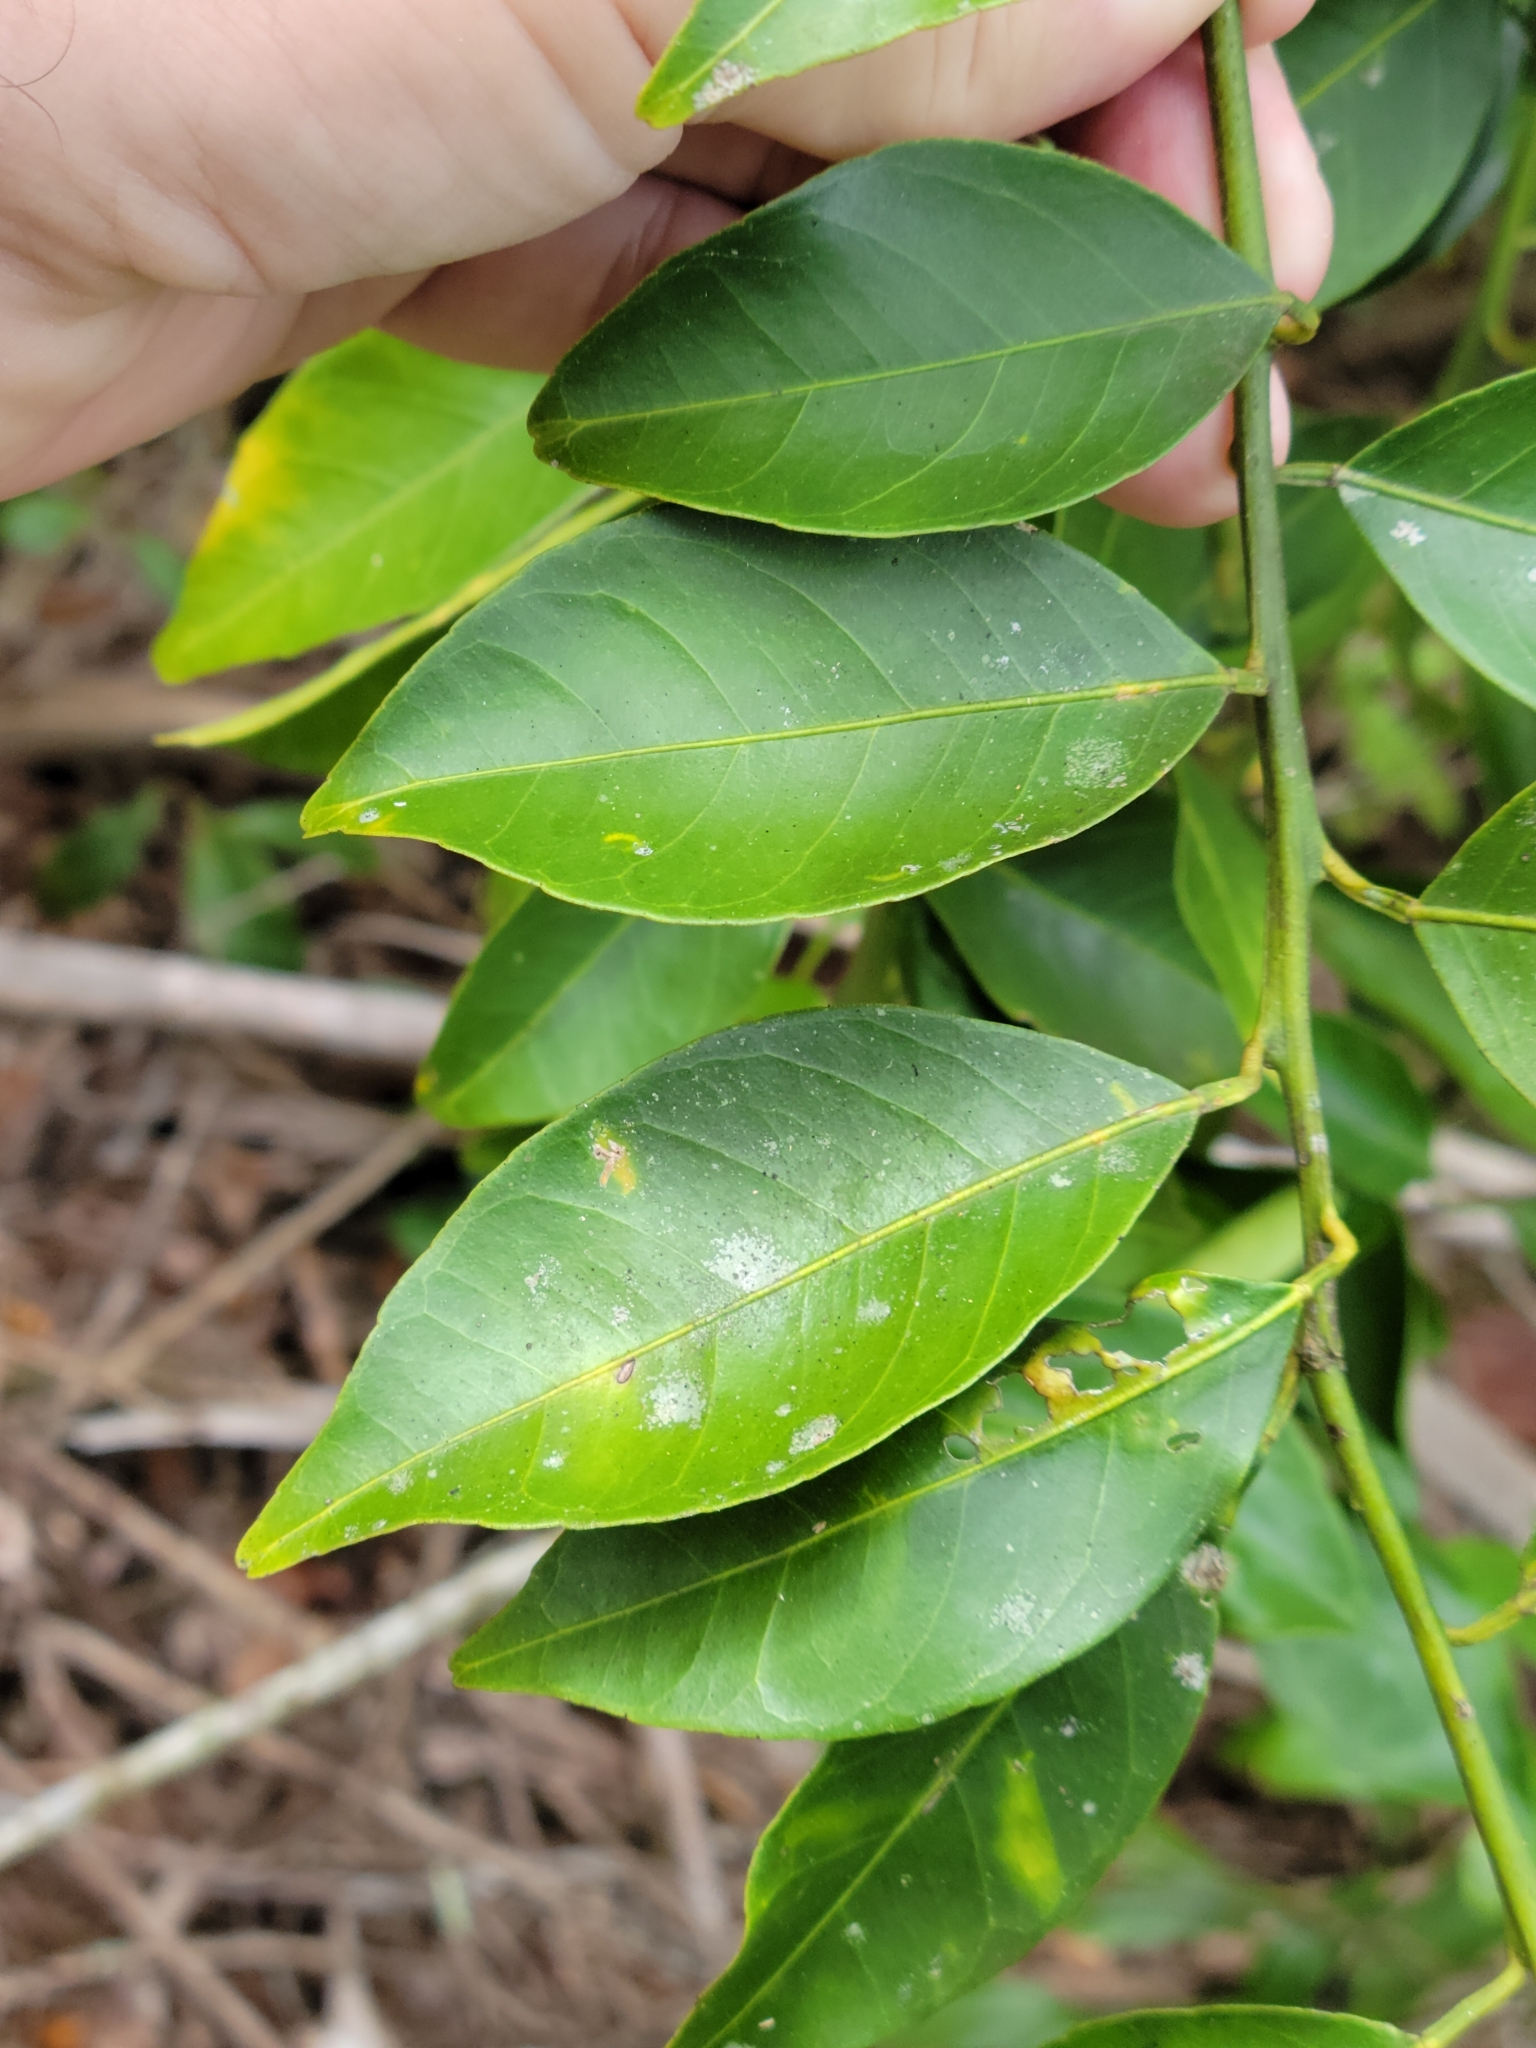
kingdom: Plantae
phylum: Tracheophyta
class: Magnoliopsida
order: Sapindales
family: Rutaceae
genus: Citrus
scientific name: Citrus aurantium
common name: Sour orange
